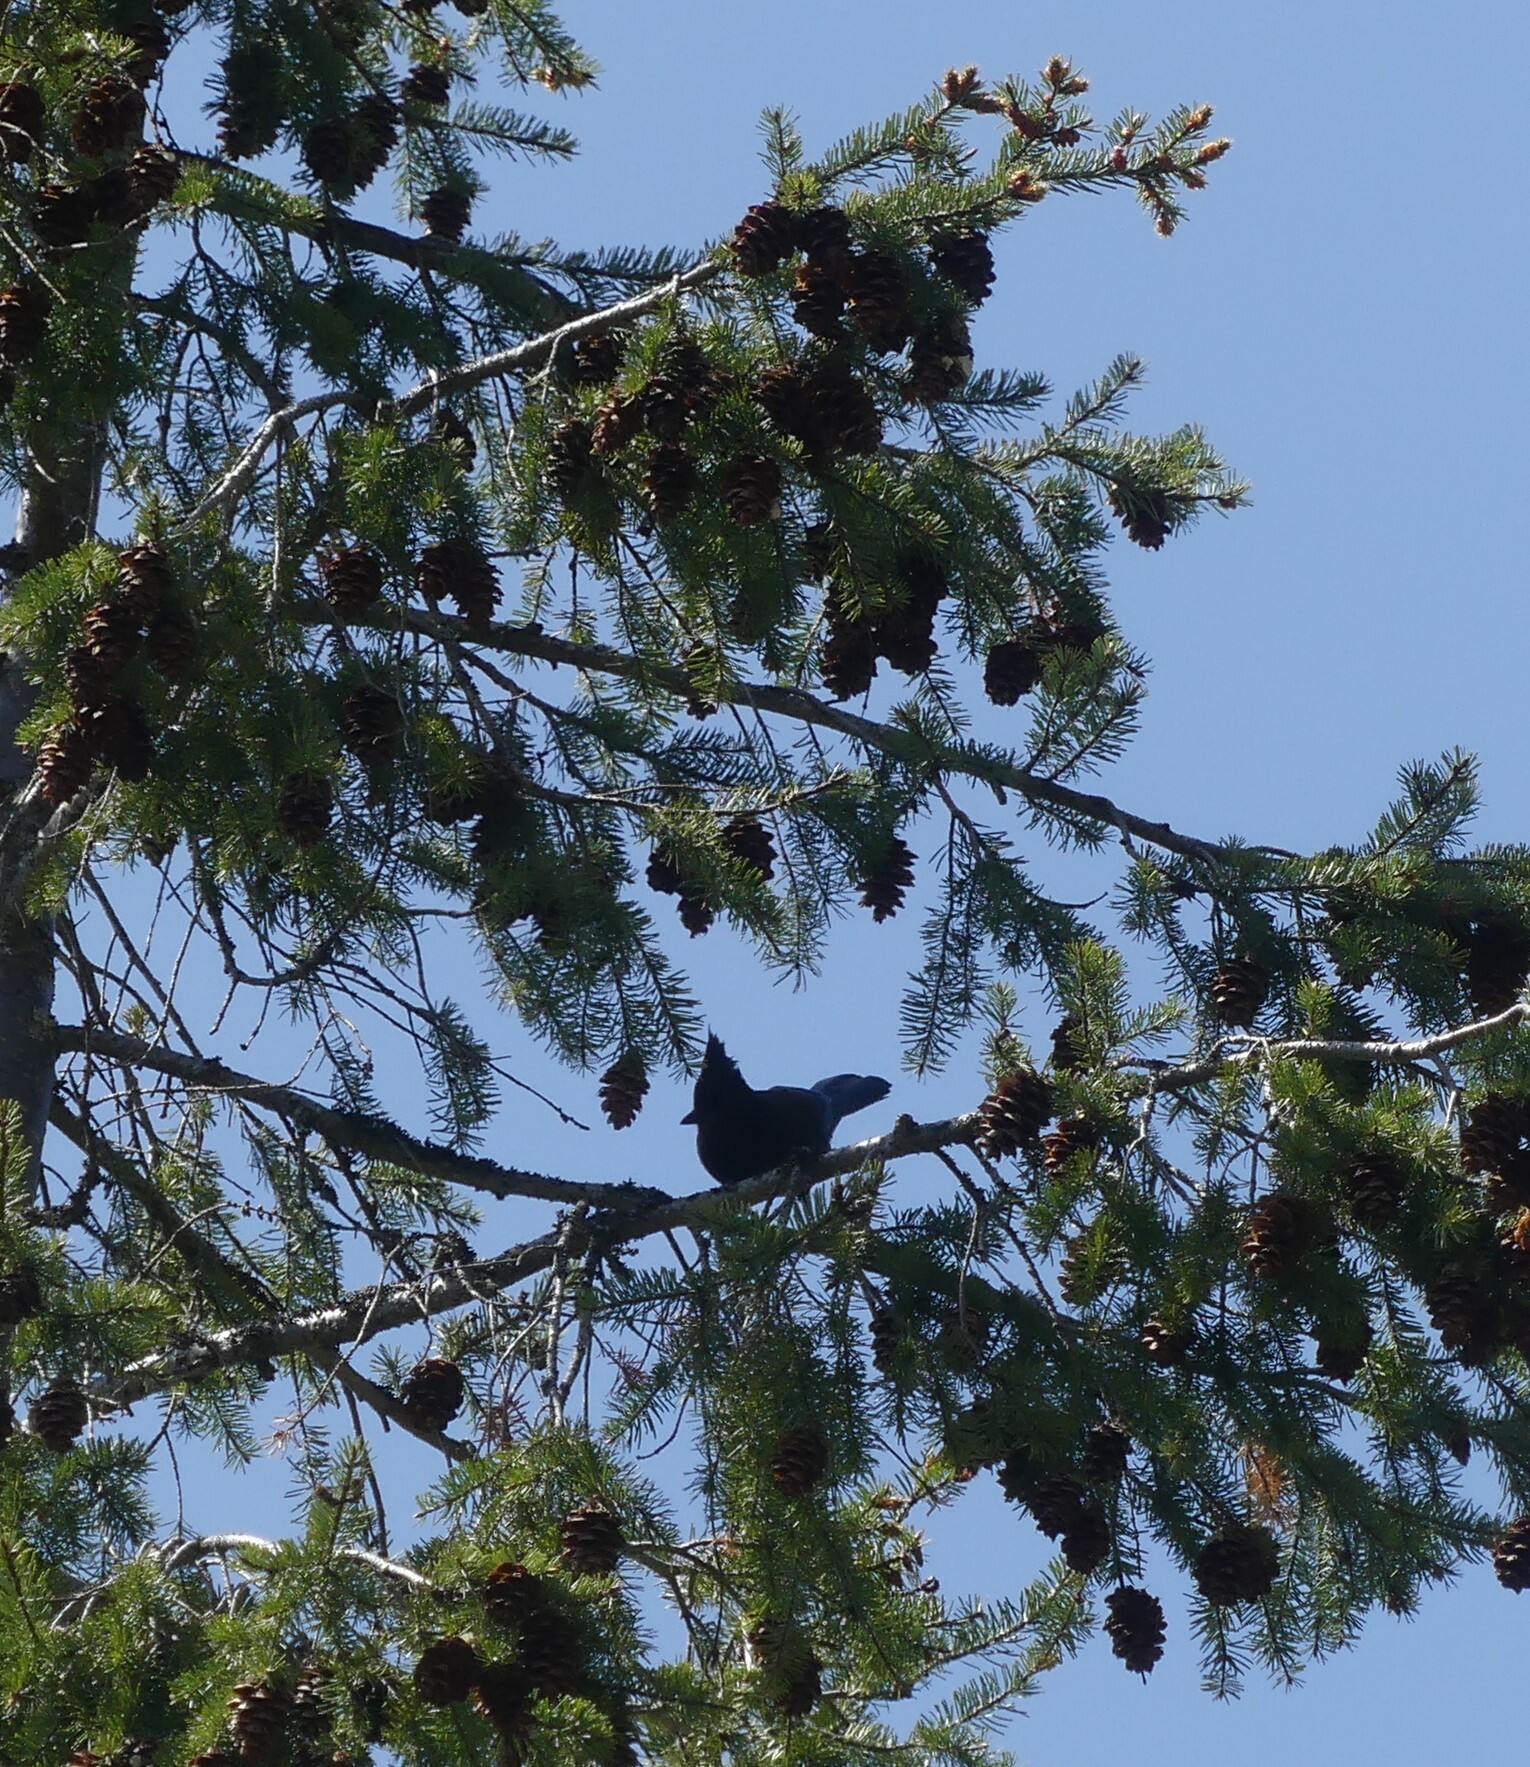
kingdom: Animalia
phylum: Chordata
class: Aves
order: Passeriformes
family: Corvidae
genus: Cyanocitta
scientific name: Cyanocitta stelleri
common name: Steller's jay
